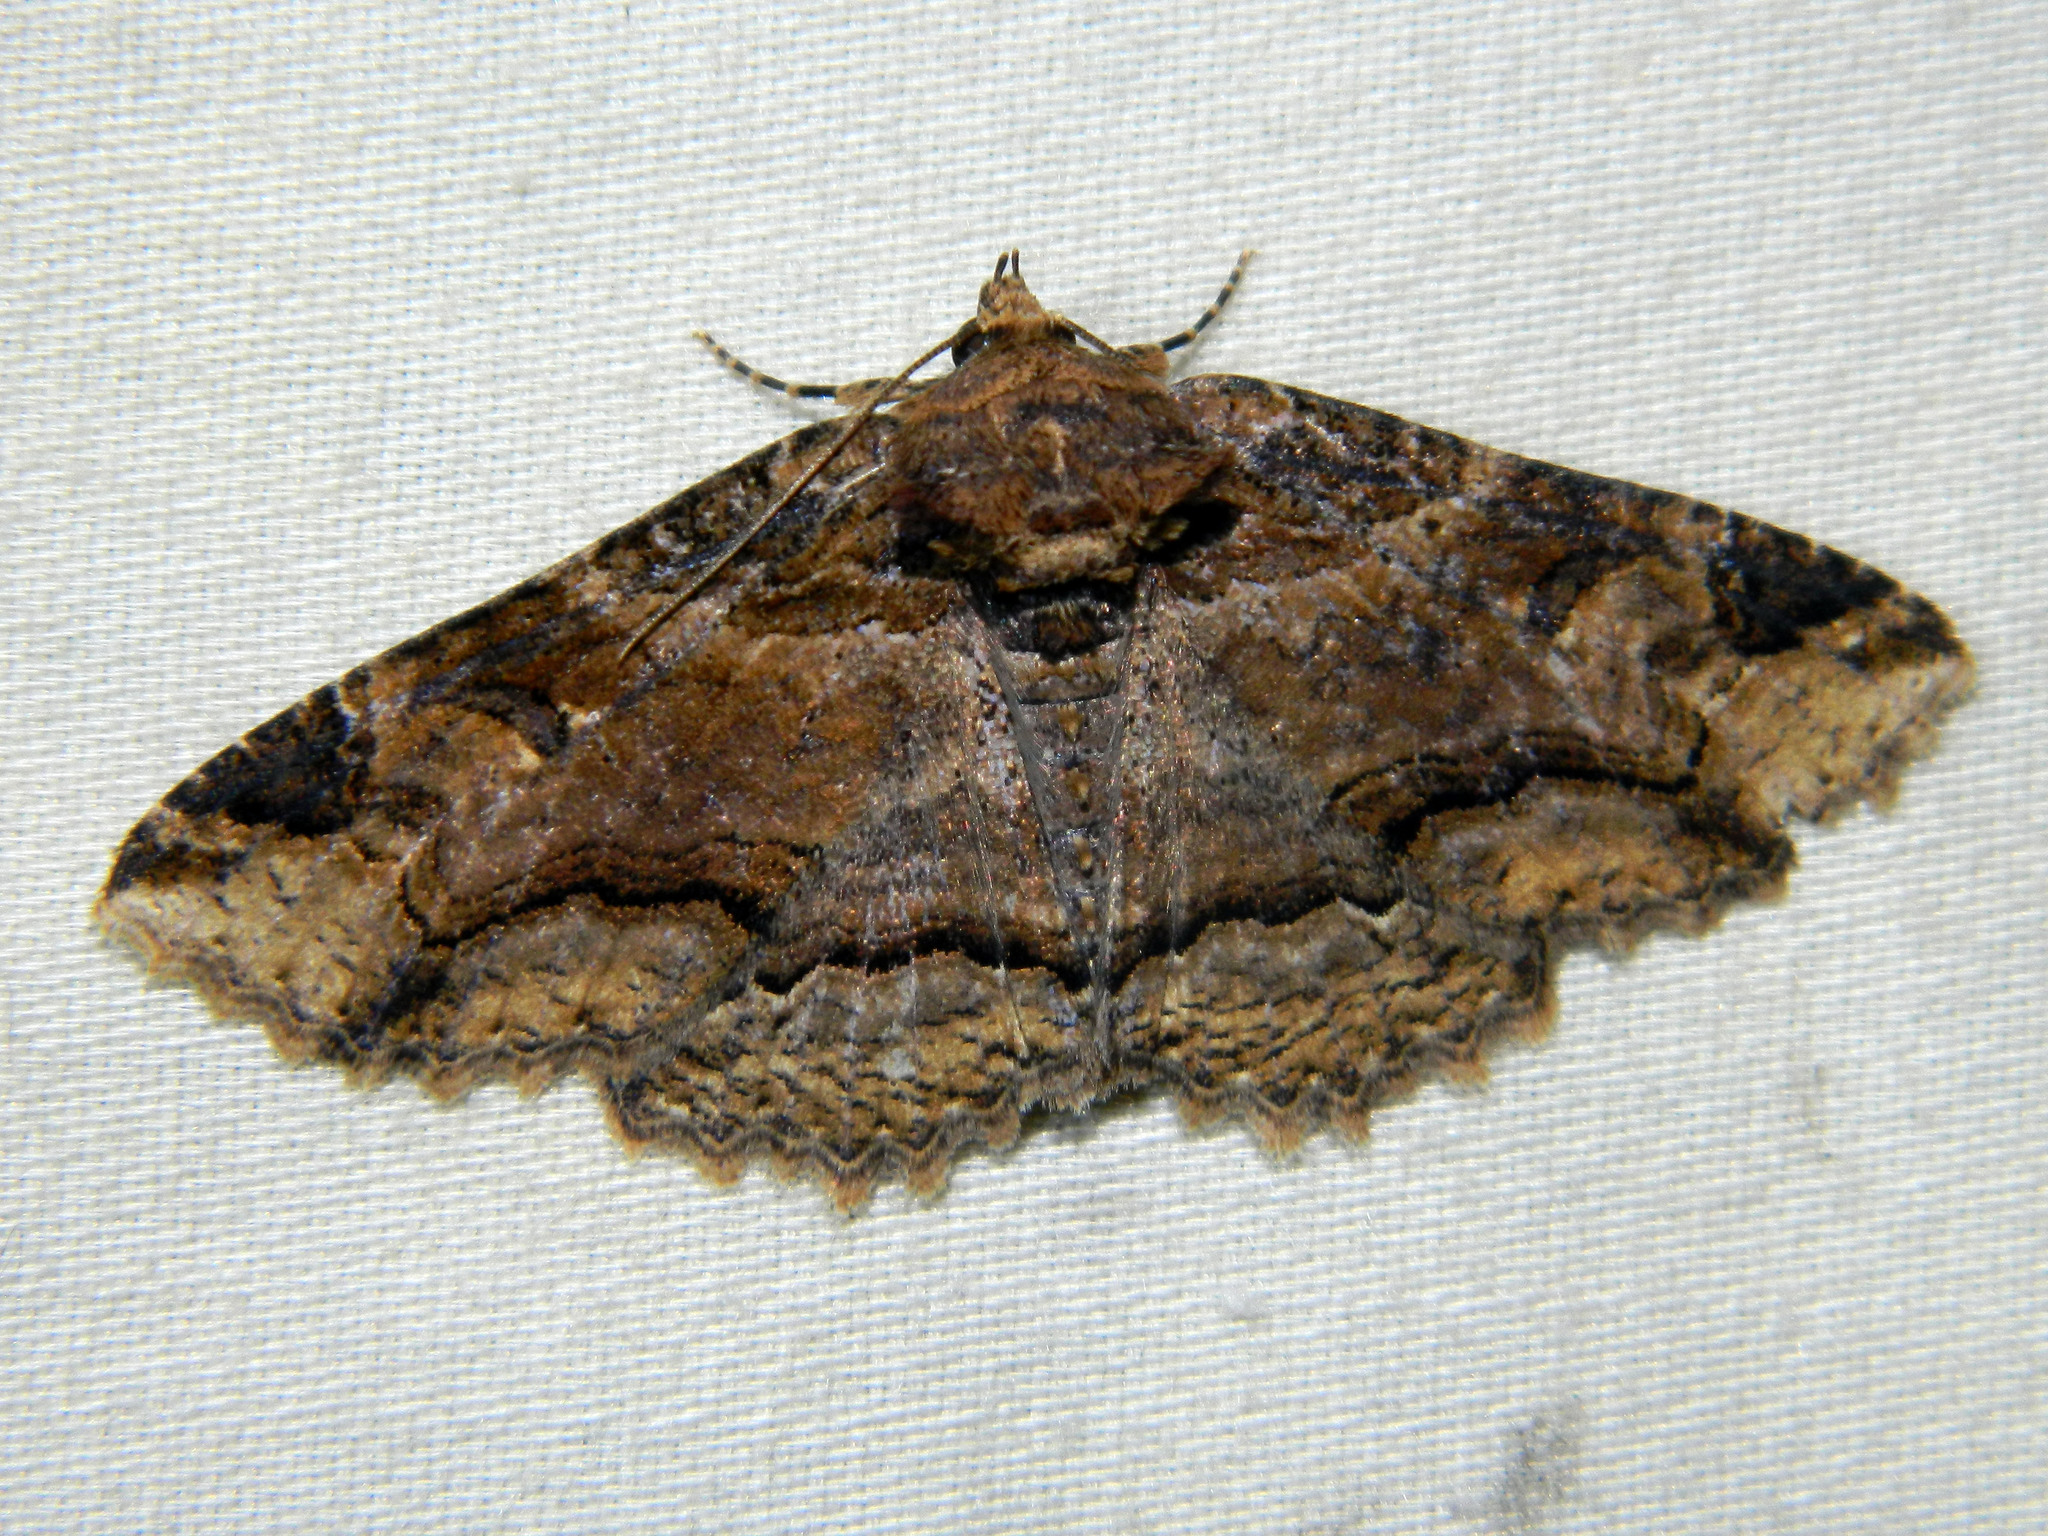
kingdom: Animalia
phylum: Arthropoda
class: Insecta
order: Lepidoptera
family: Erebidae
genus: Zale
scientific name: Zale minerea
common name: Colorful zale moth
